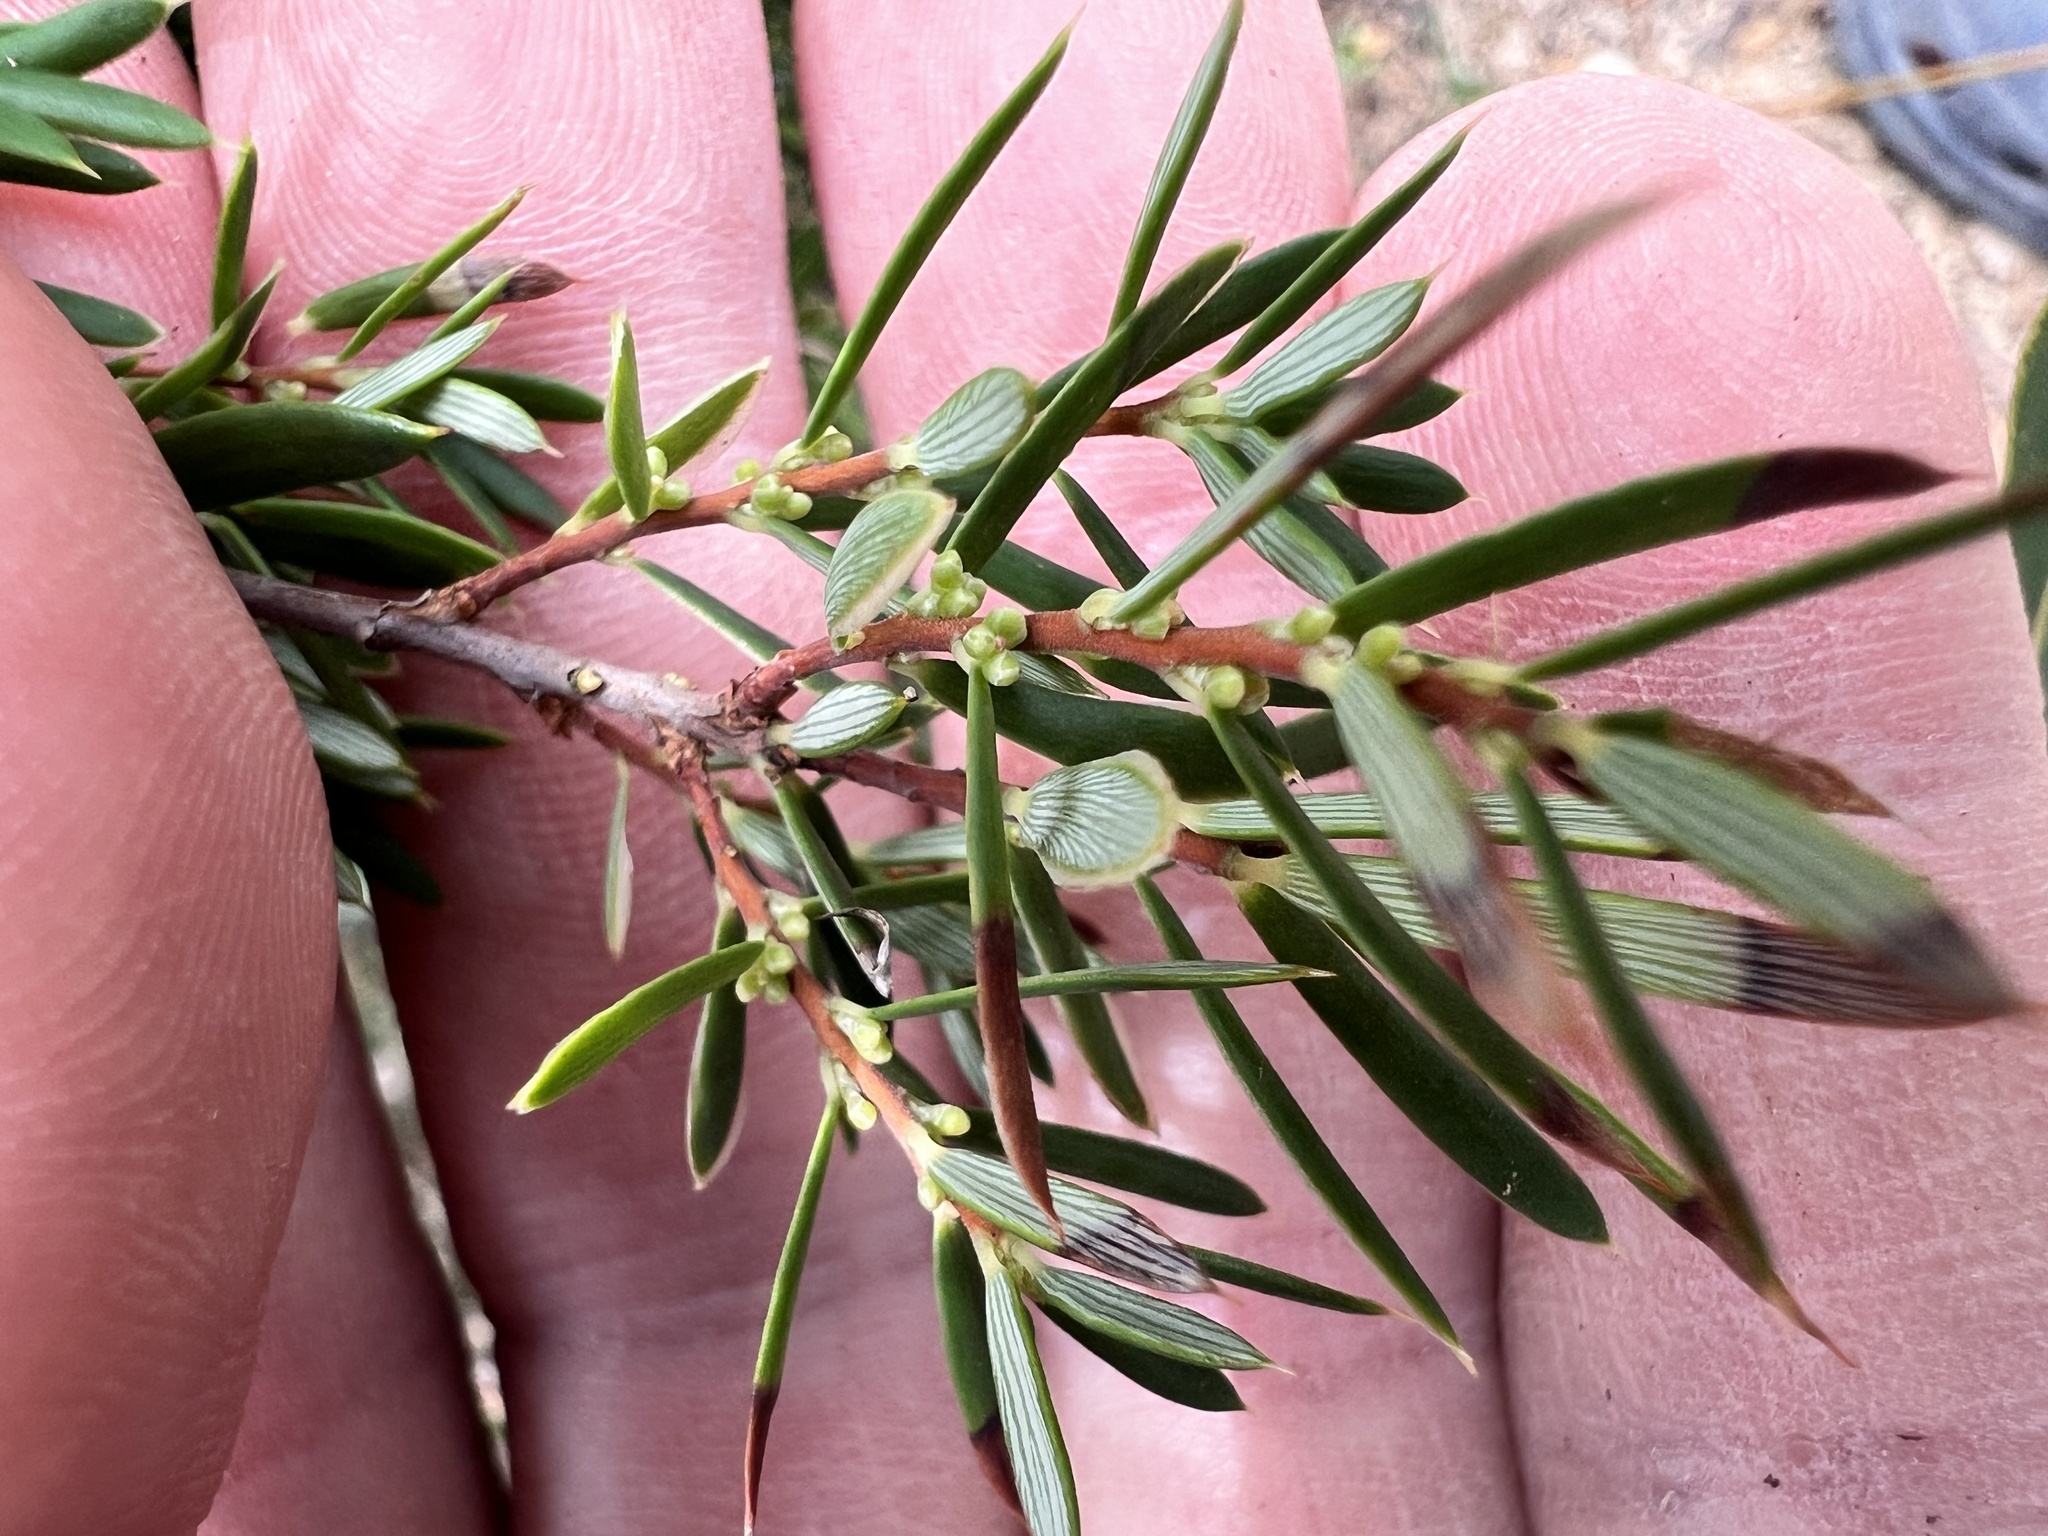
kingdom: Plantae
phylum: Tracheophyta
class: Magnoliopsida
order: Ericales
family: Ericaceae
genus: Monotoca
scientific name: Monotoca scoparia
